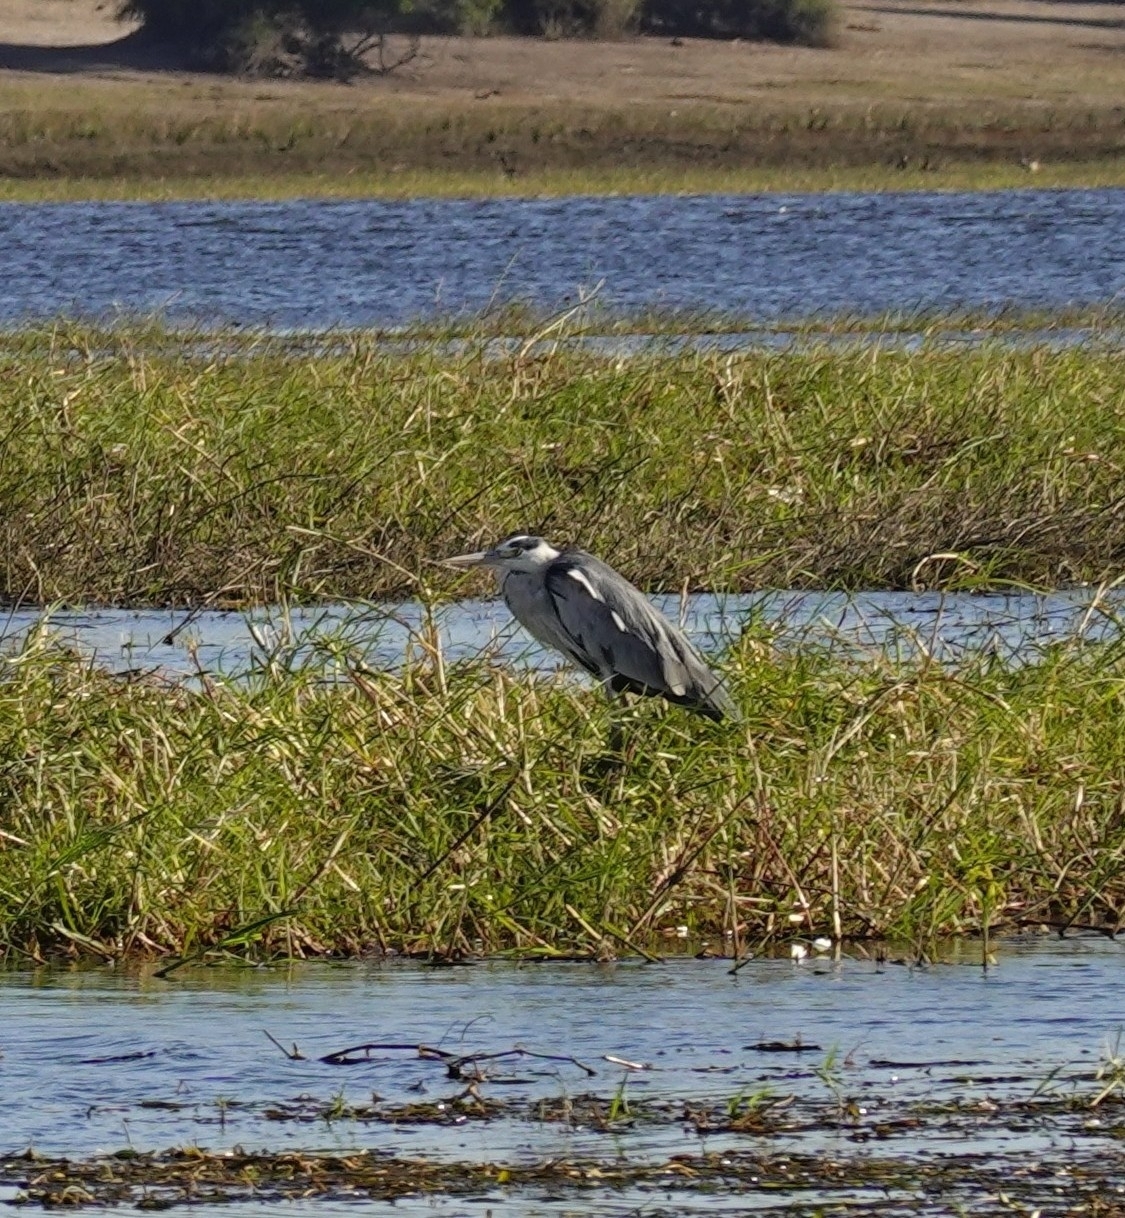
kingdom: Animalia
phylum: Chordata
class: Aves
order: Pelecaniformes
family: Ardeidae
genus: Ardea
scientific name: Ardea cinerea
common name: Grey heron
